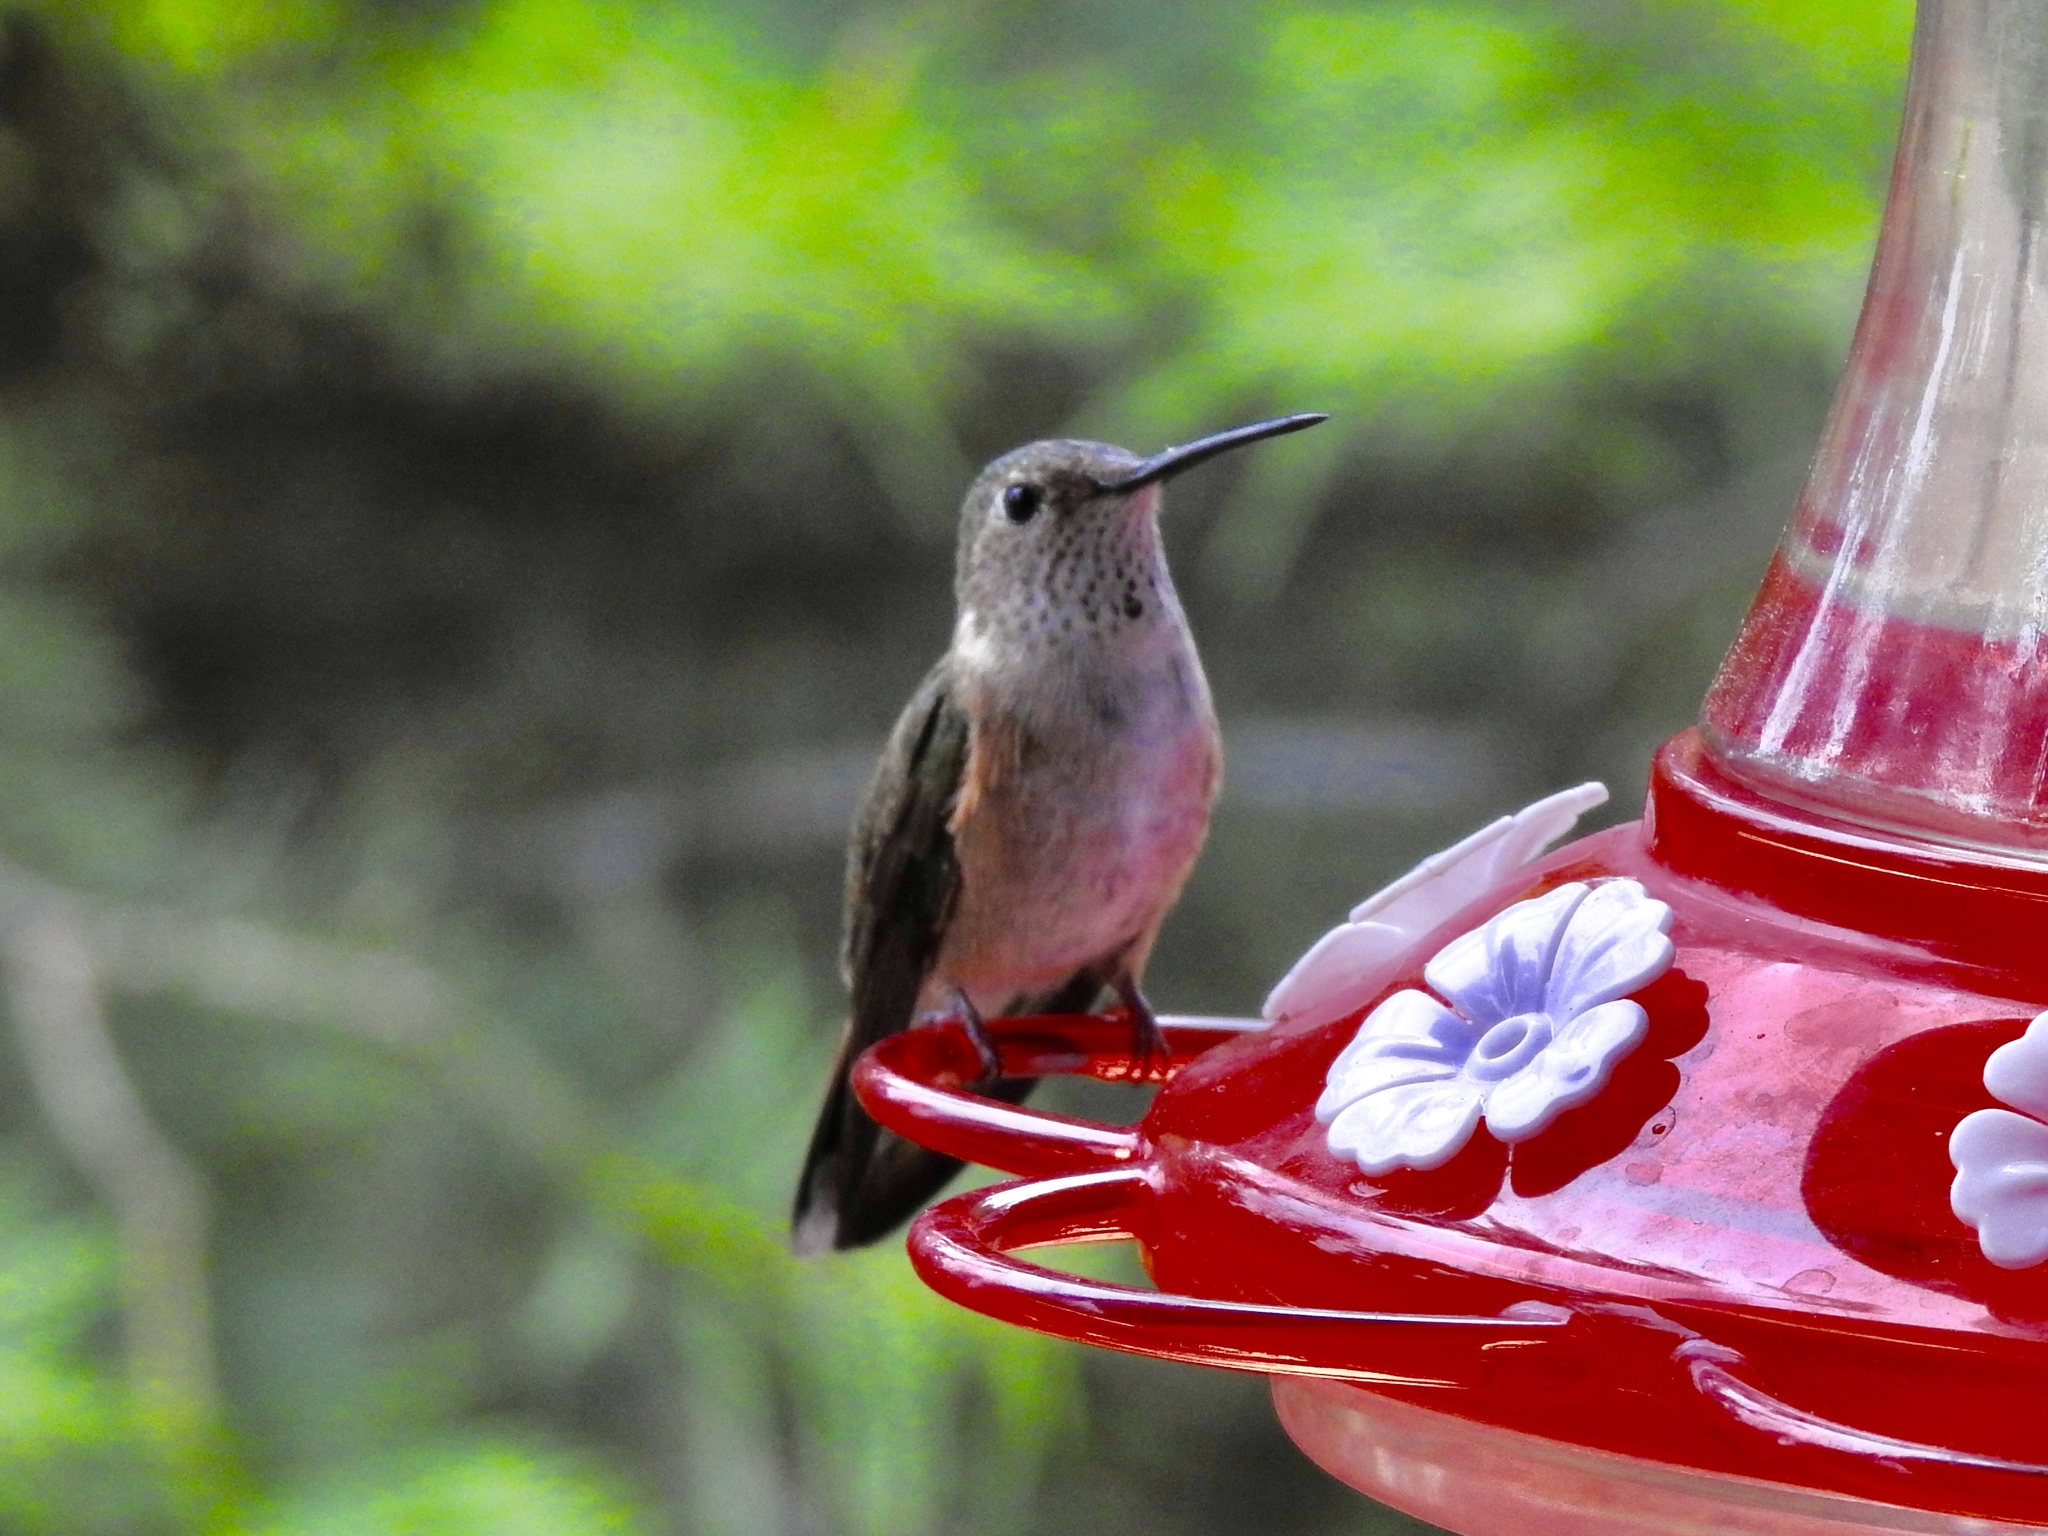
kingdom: Animalia
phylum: Chordata
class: Aves
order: Apodiformes
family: Trochilidae
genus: Selasphorus
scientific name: Selasphorus platycercus
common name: Broad-tailed hummingbird
